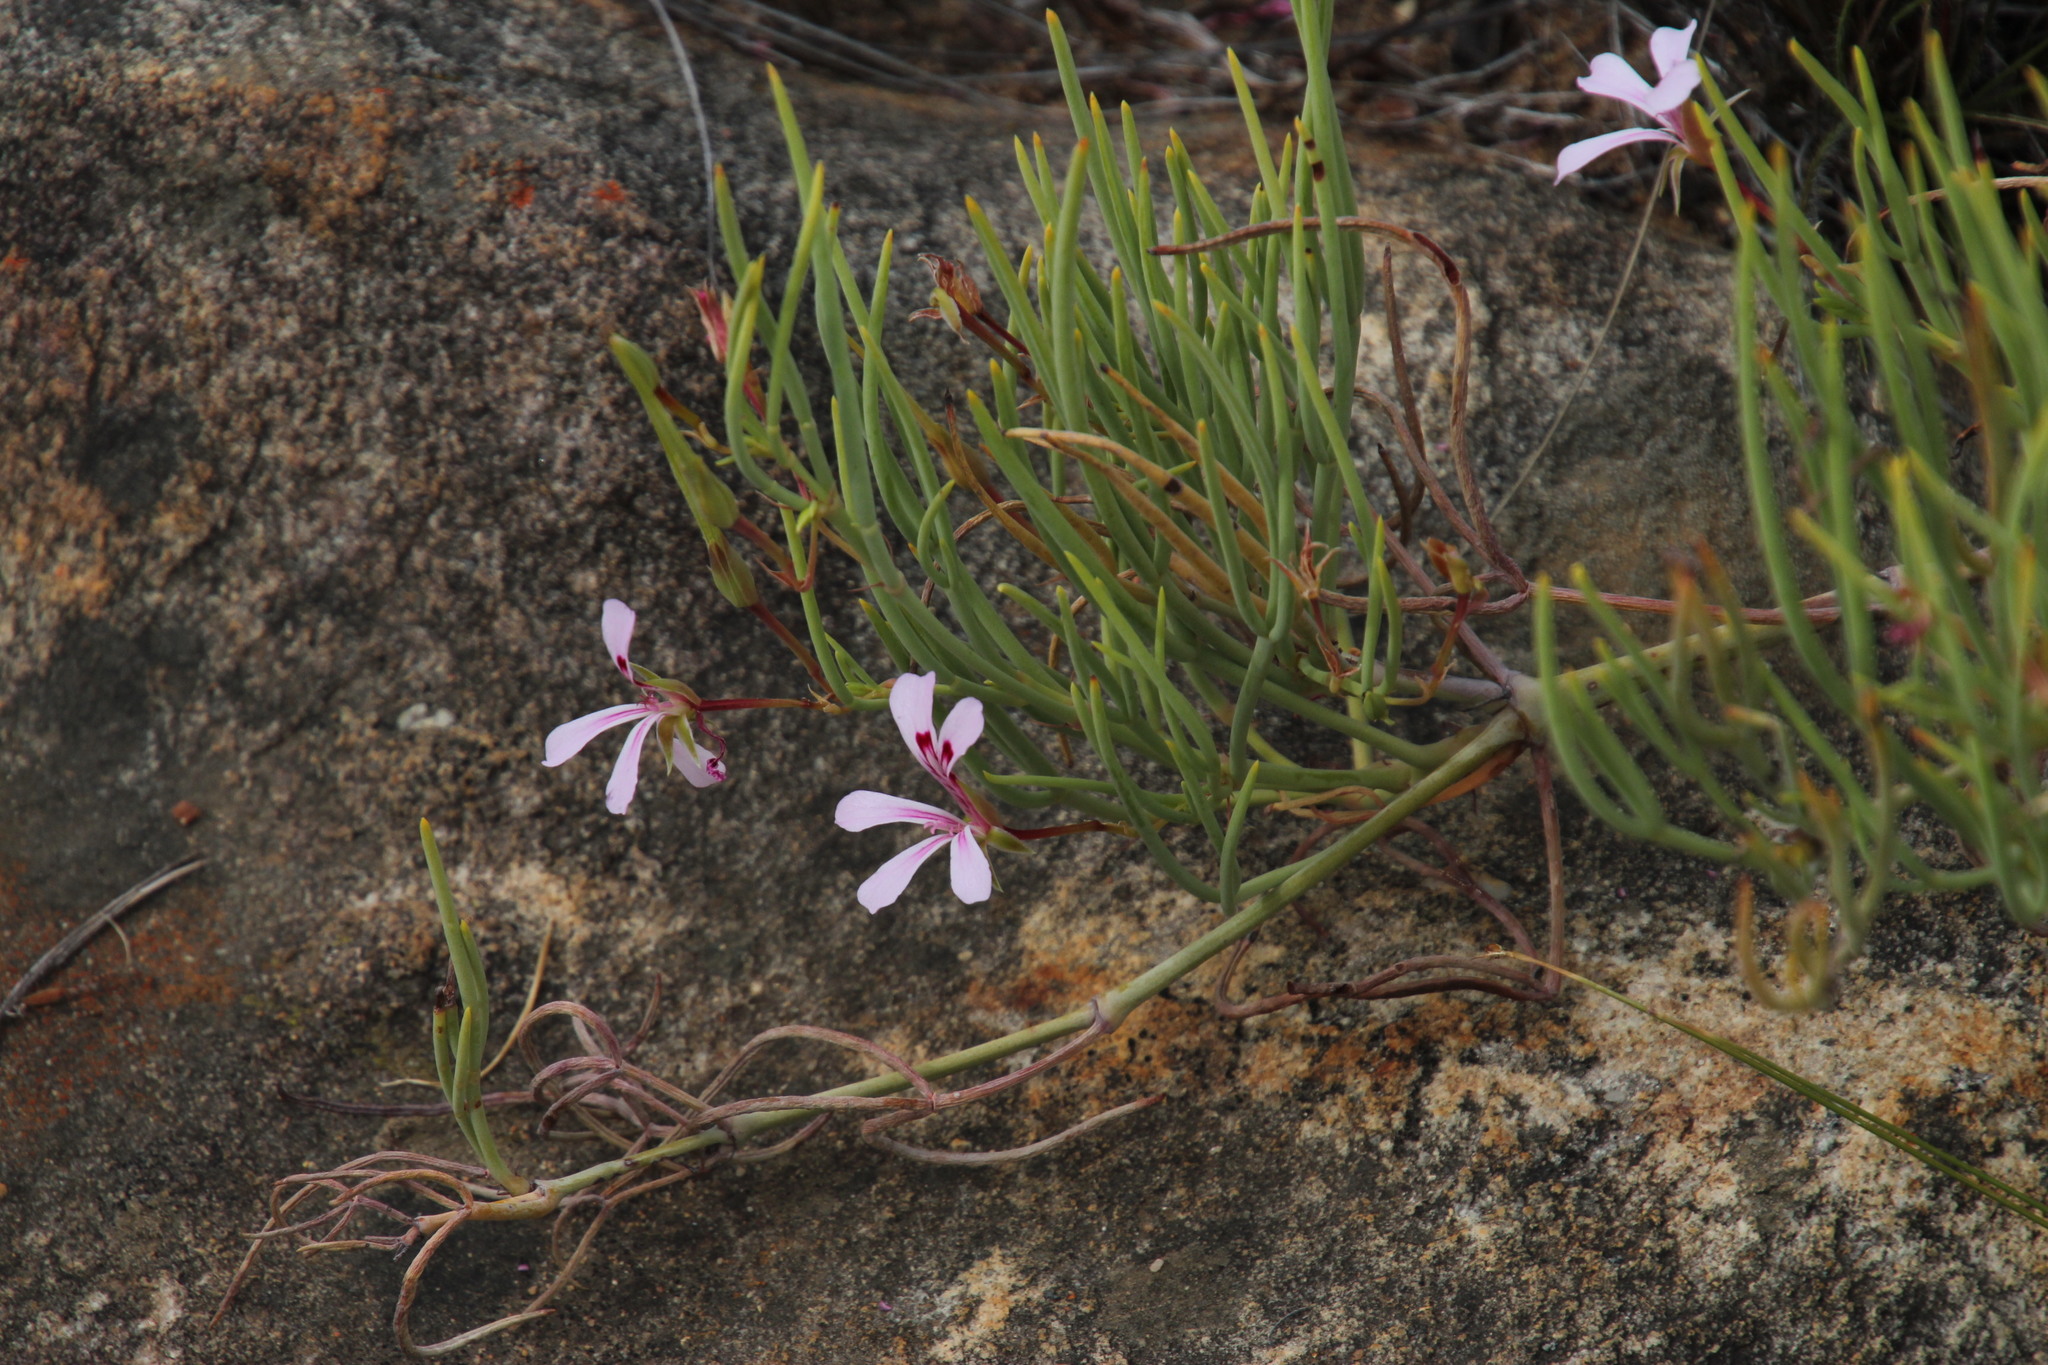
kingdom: Plantae
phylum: Tracheophyta
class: Magnoliopsida
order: Geraniales
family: Geraniaceae
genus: Pelargonium
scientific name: Pelargonium laevigatum
